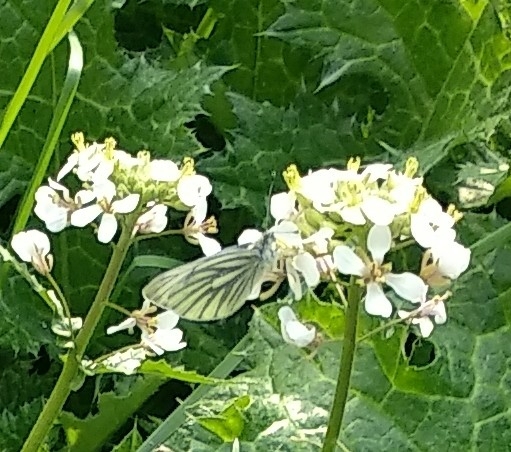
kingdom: Animalia
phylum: Arthropoda
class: Insecta
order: Lepidoptera
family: Pieridae
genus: Pieris
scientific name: Pieris napi
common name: Green-veined white
